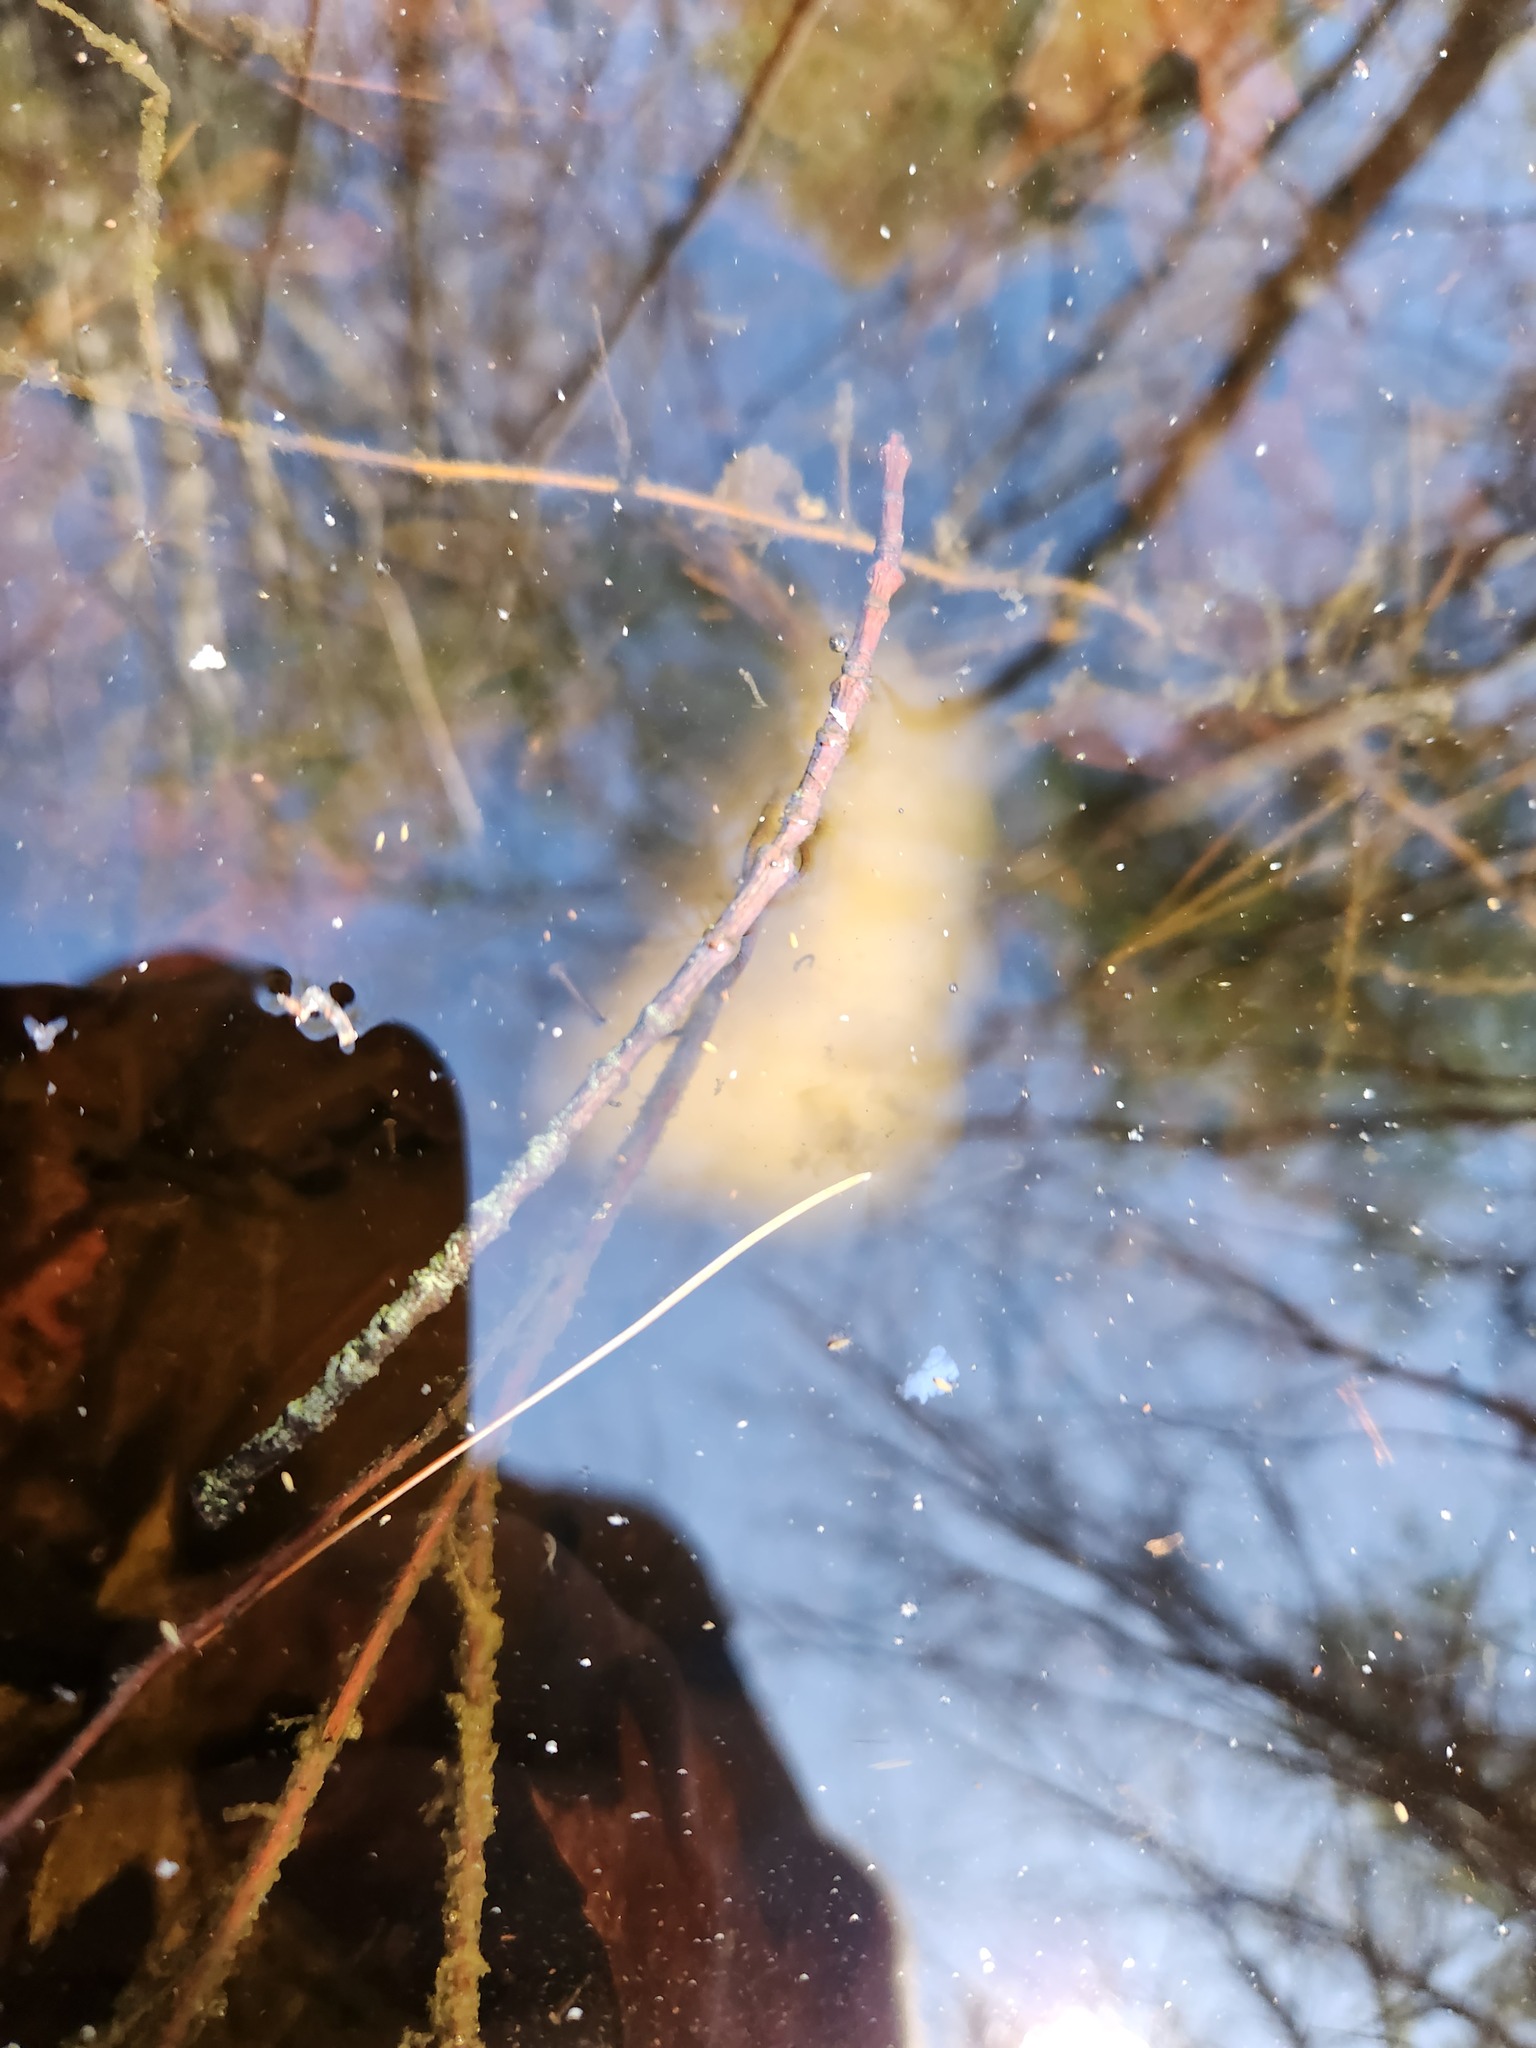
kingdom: Animalia
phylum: Chordata
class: Amphibia
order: Caudata
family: Ambystomatidae
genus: Ambystoma
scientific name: Ambystoma maculatum
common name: Spotted salamander
